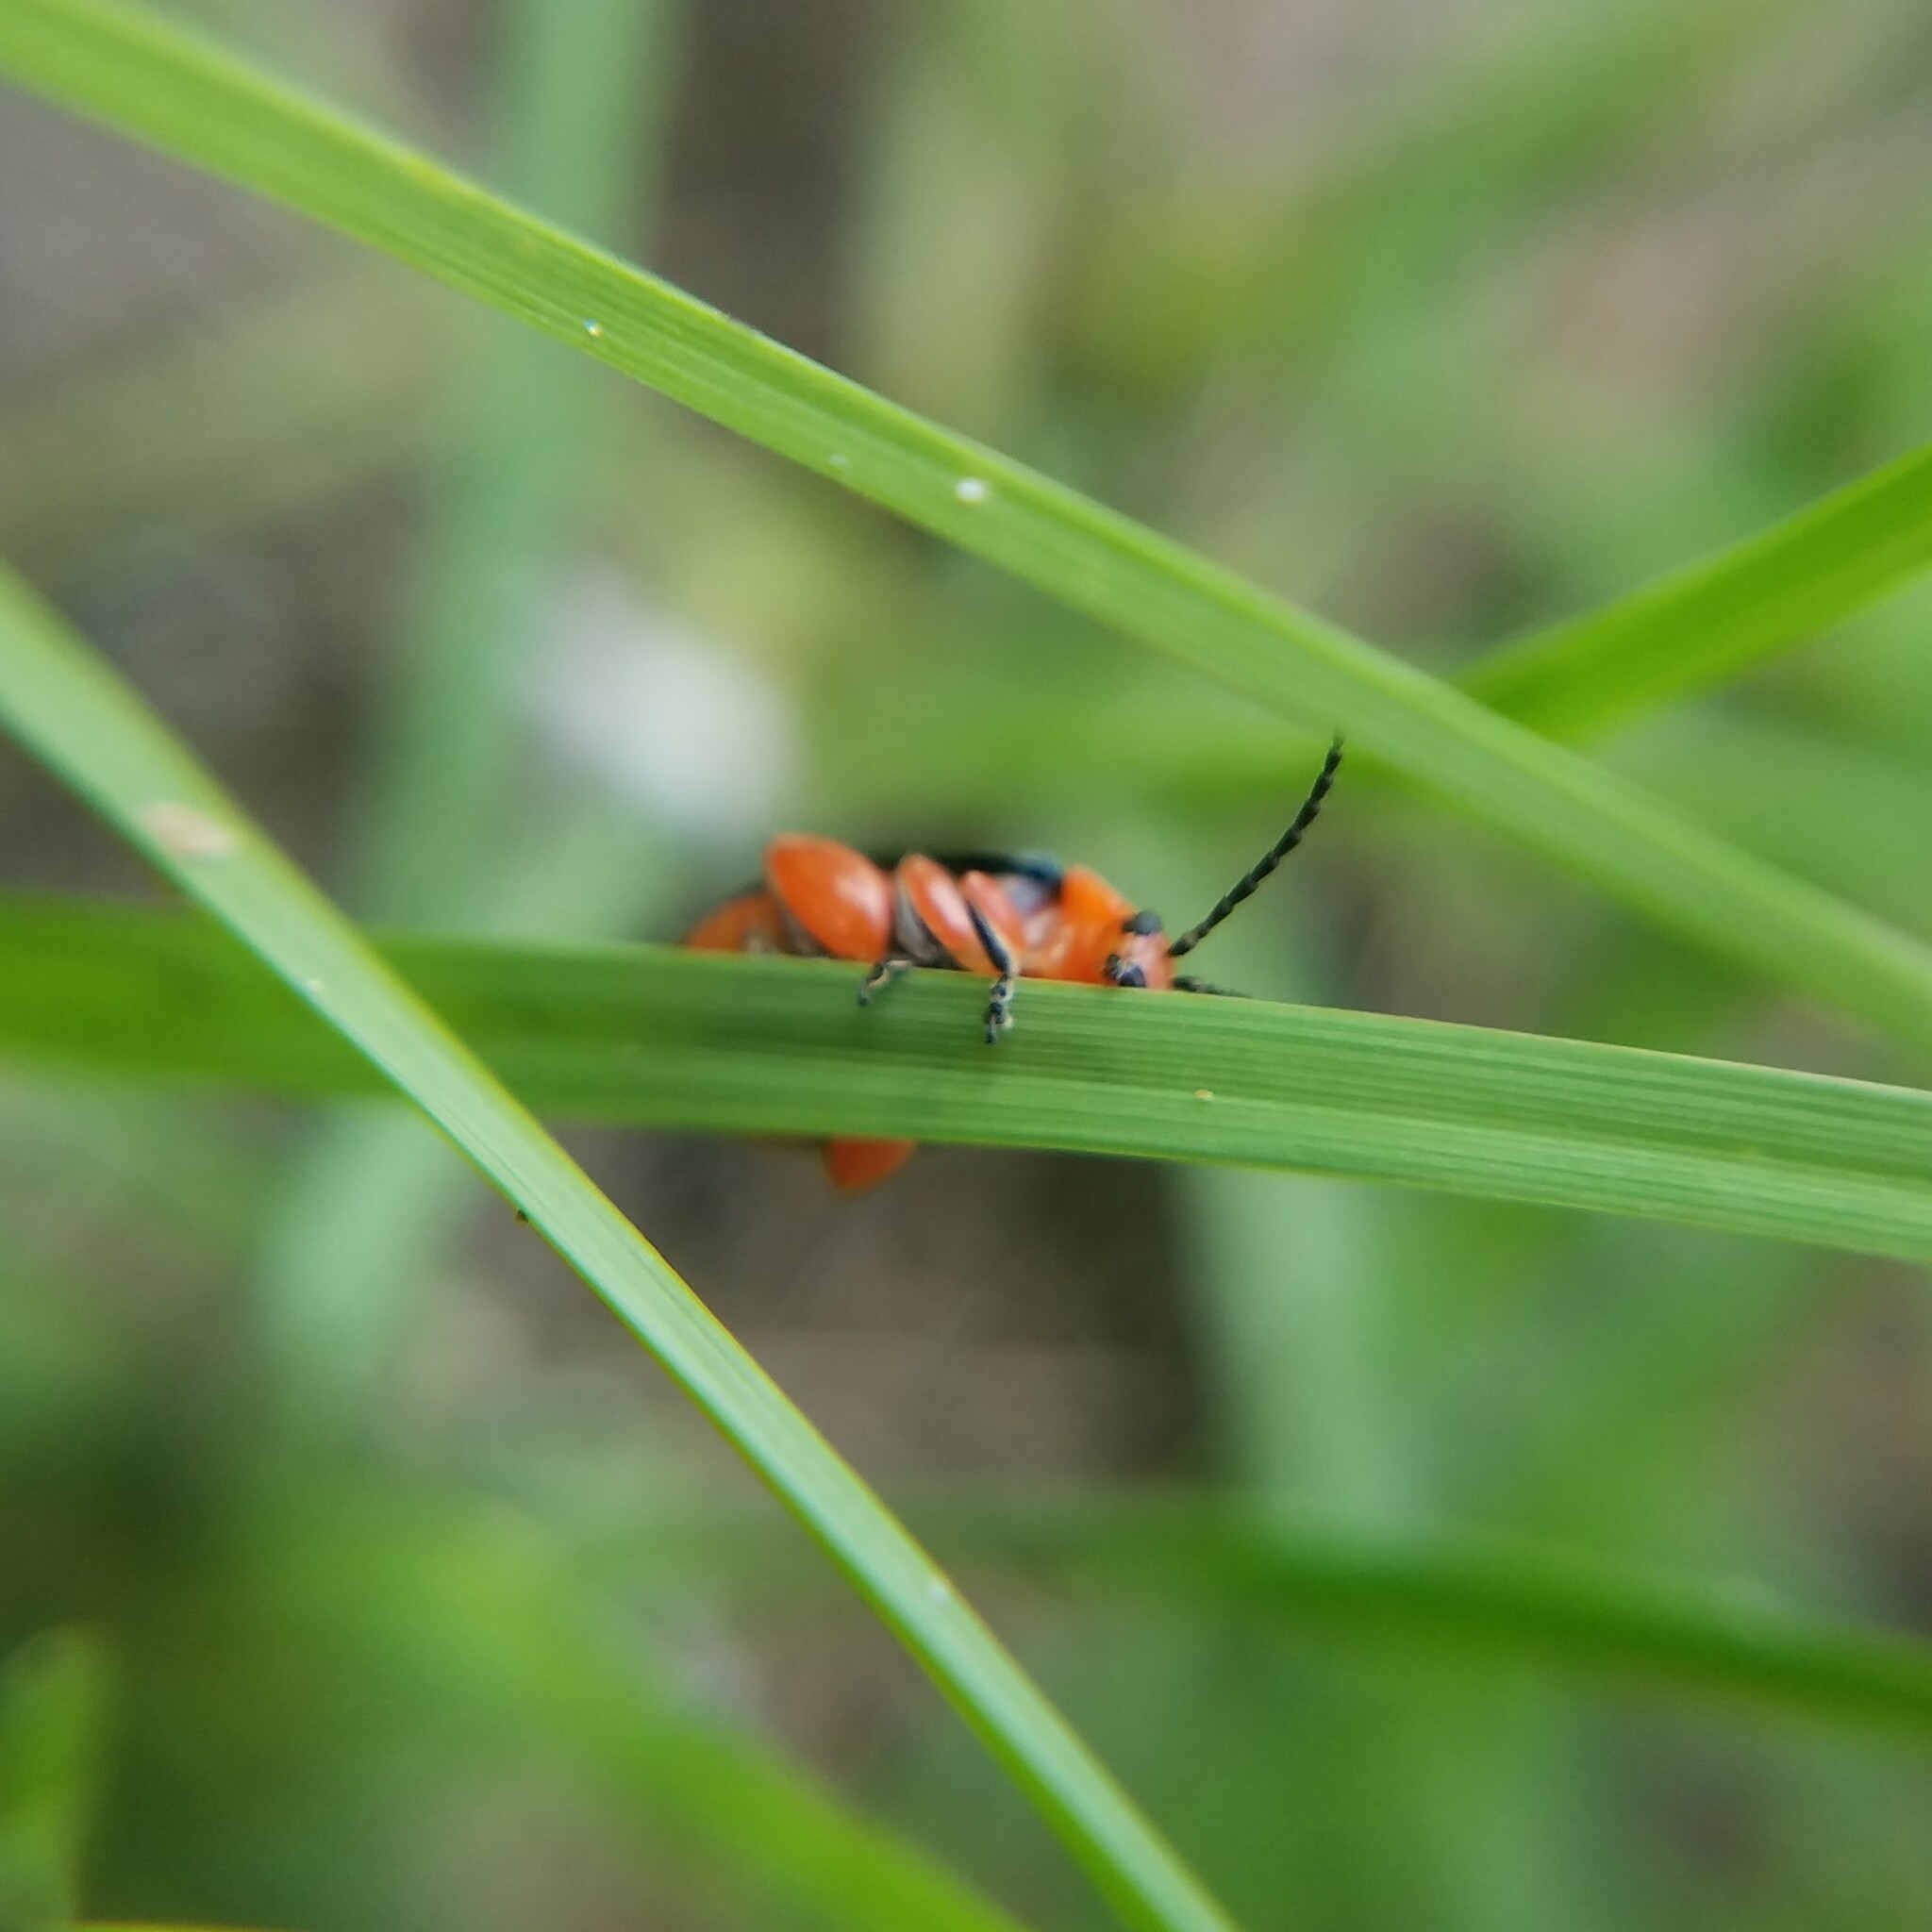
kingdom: Animalia
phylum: Arthropoda
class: Insecta
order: Coleoptera
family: Chrysomelidae
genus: Asphaera
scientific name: Asphaera lustrans
